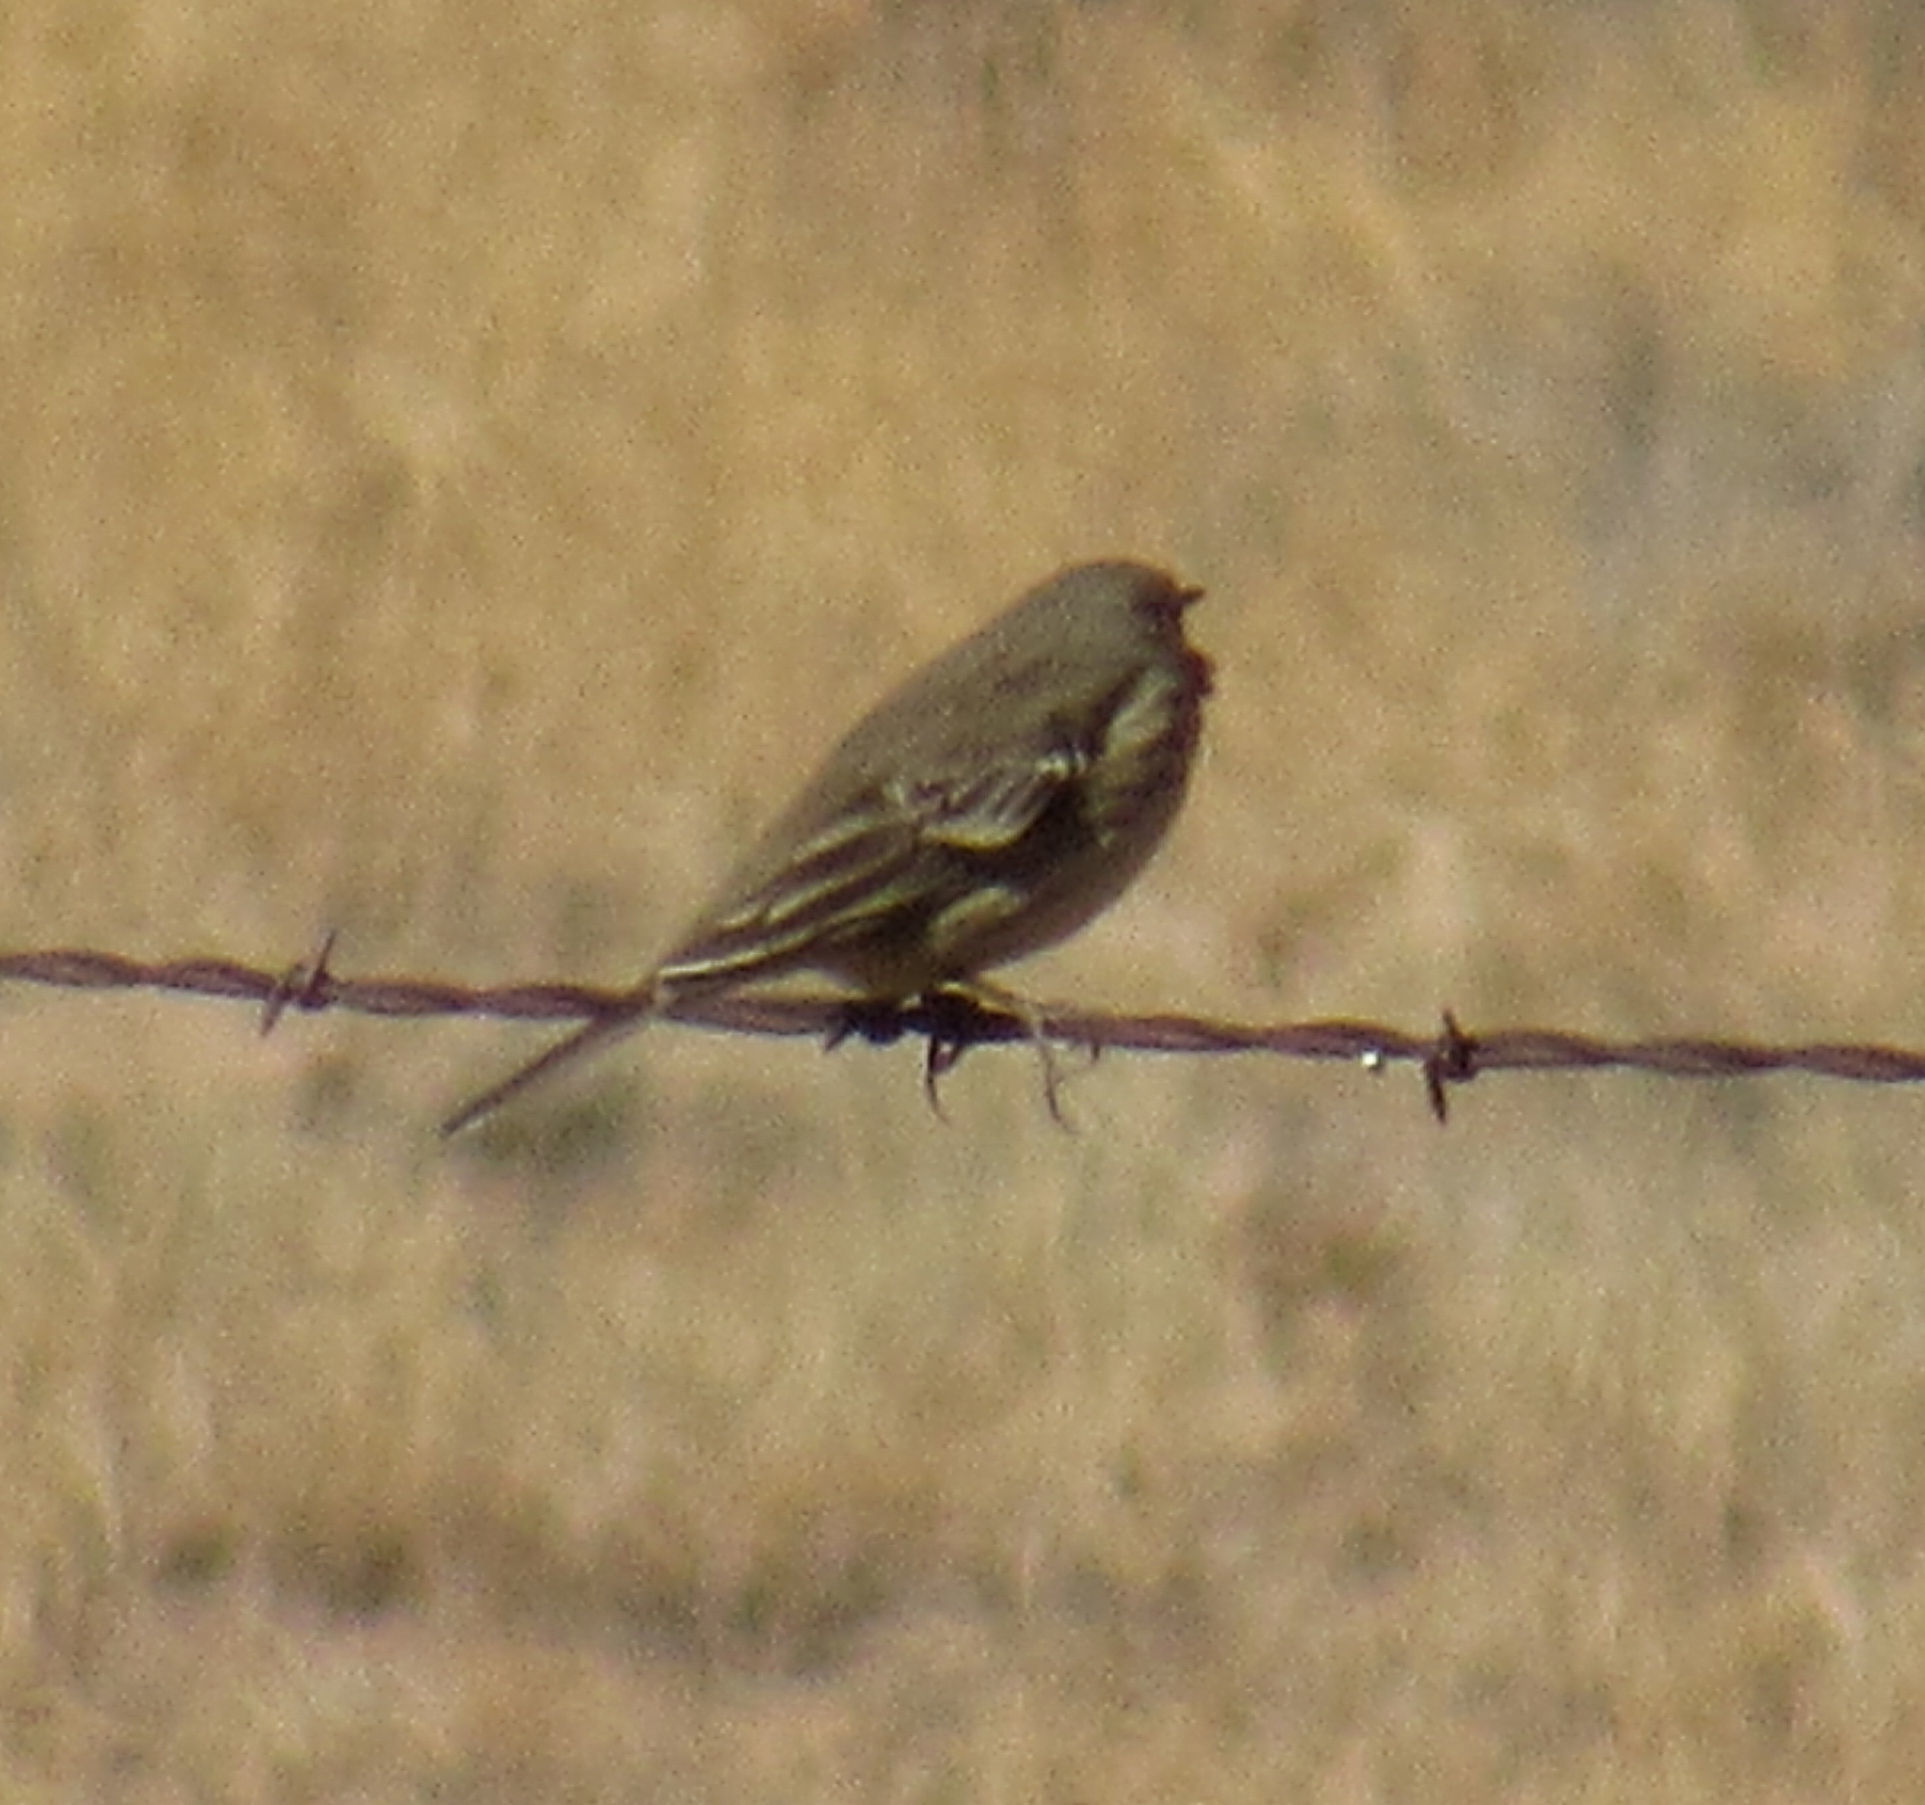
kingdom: Animalia
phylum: Chordata
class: Aves
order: Passeriformes
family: Motacillidae
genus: Anthus
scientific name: Anthus rubescens
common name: Buff-bellied pipit
